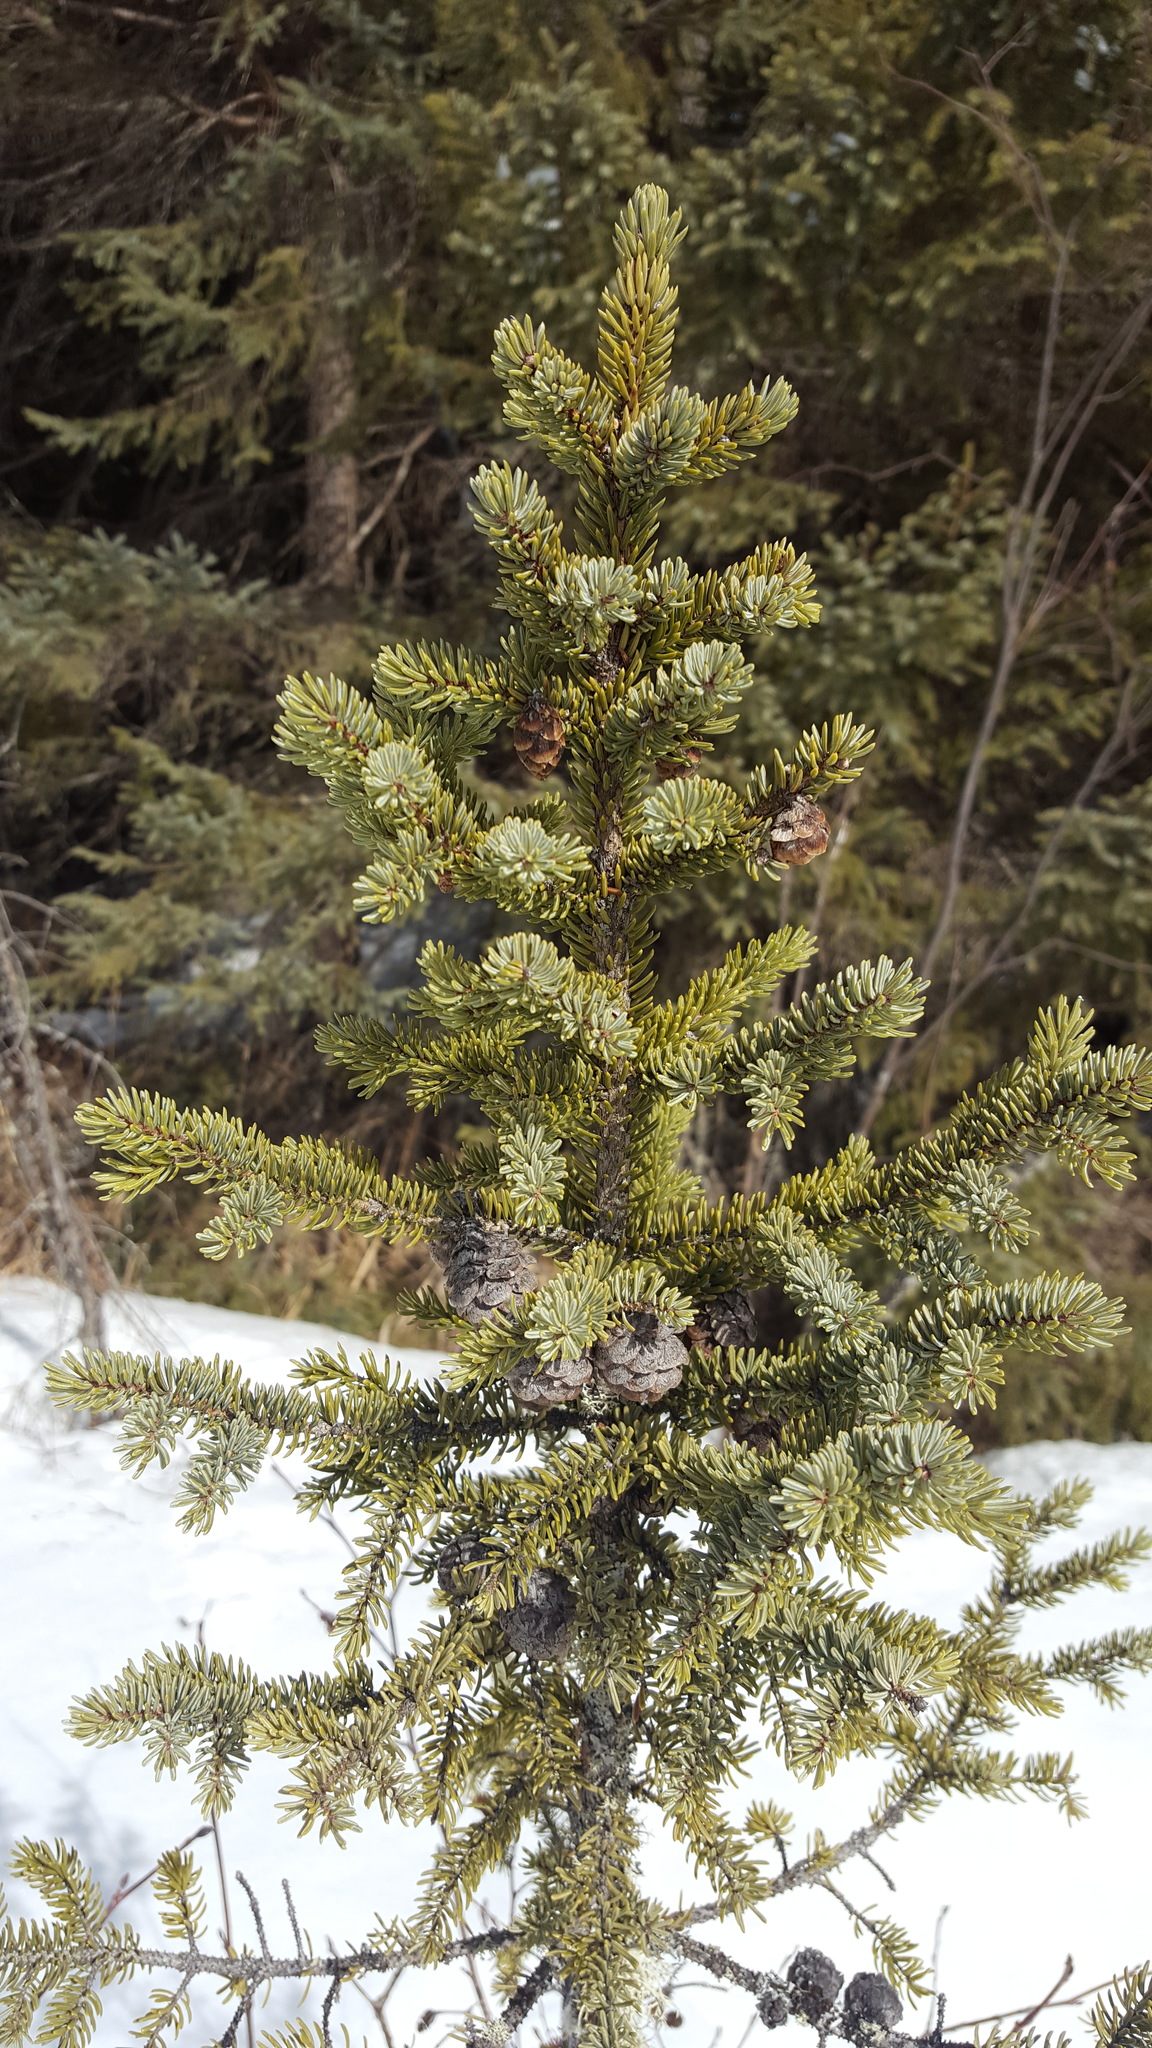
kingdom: Plantae
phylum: Tracheophyta
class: Pinopsida
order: Pinales
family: Pinaceae
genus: Picea
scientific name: Picea mariana
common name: Black spruce
